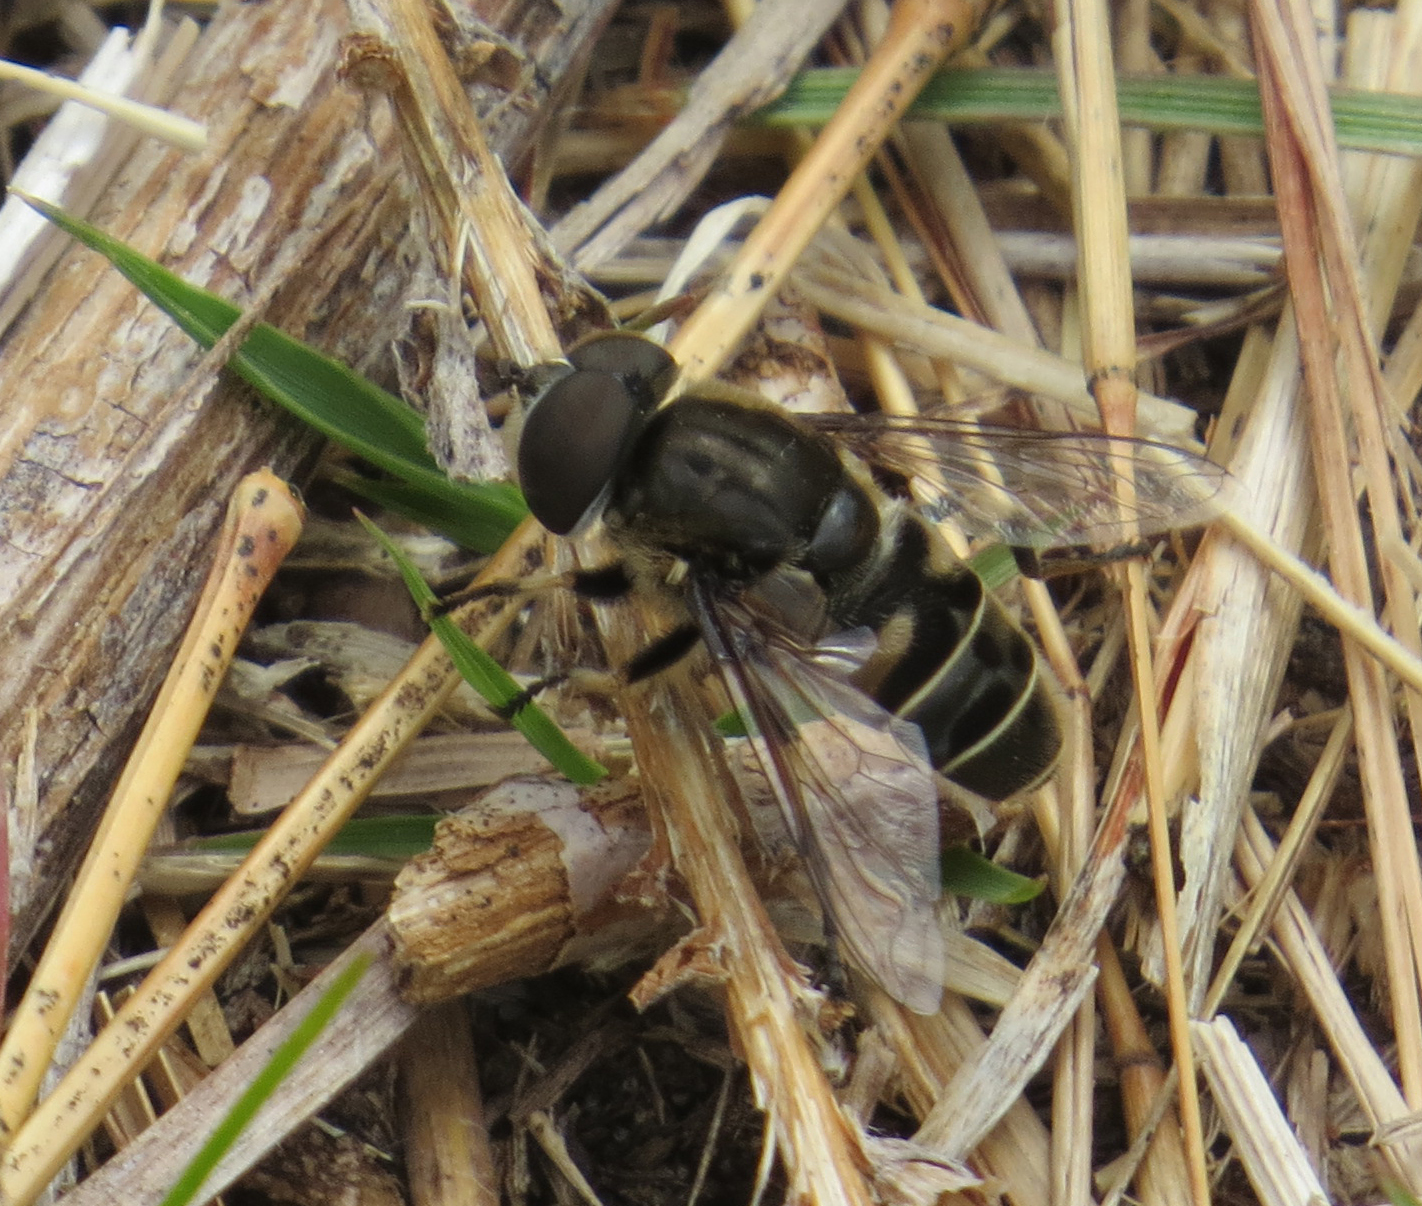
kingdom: Animalia
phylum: Arthropoda
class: Insecta
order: Diptera
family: Syrphidae
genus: Eristalis
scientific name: Eristalis dimidiata
